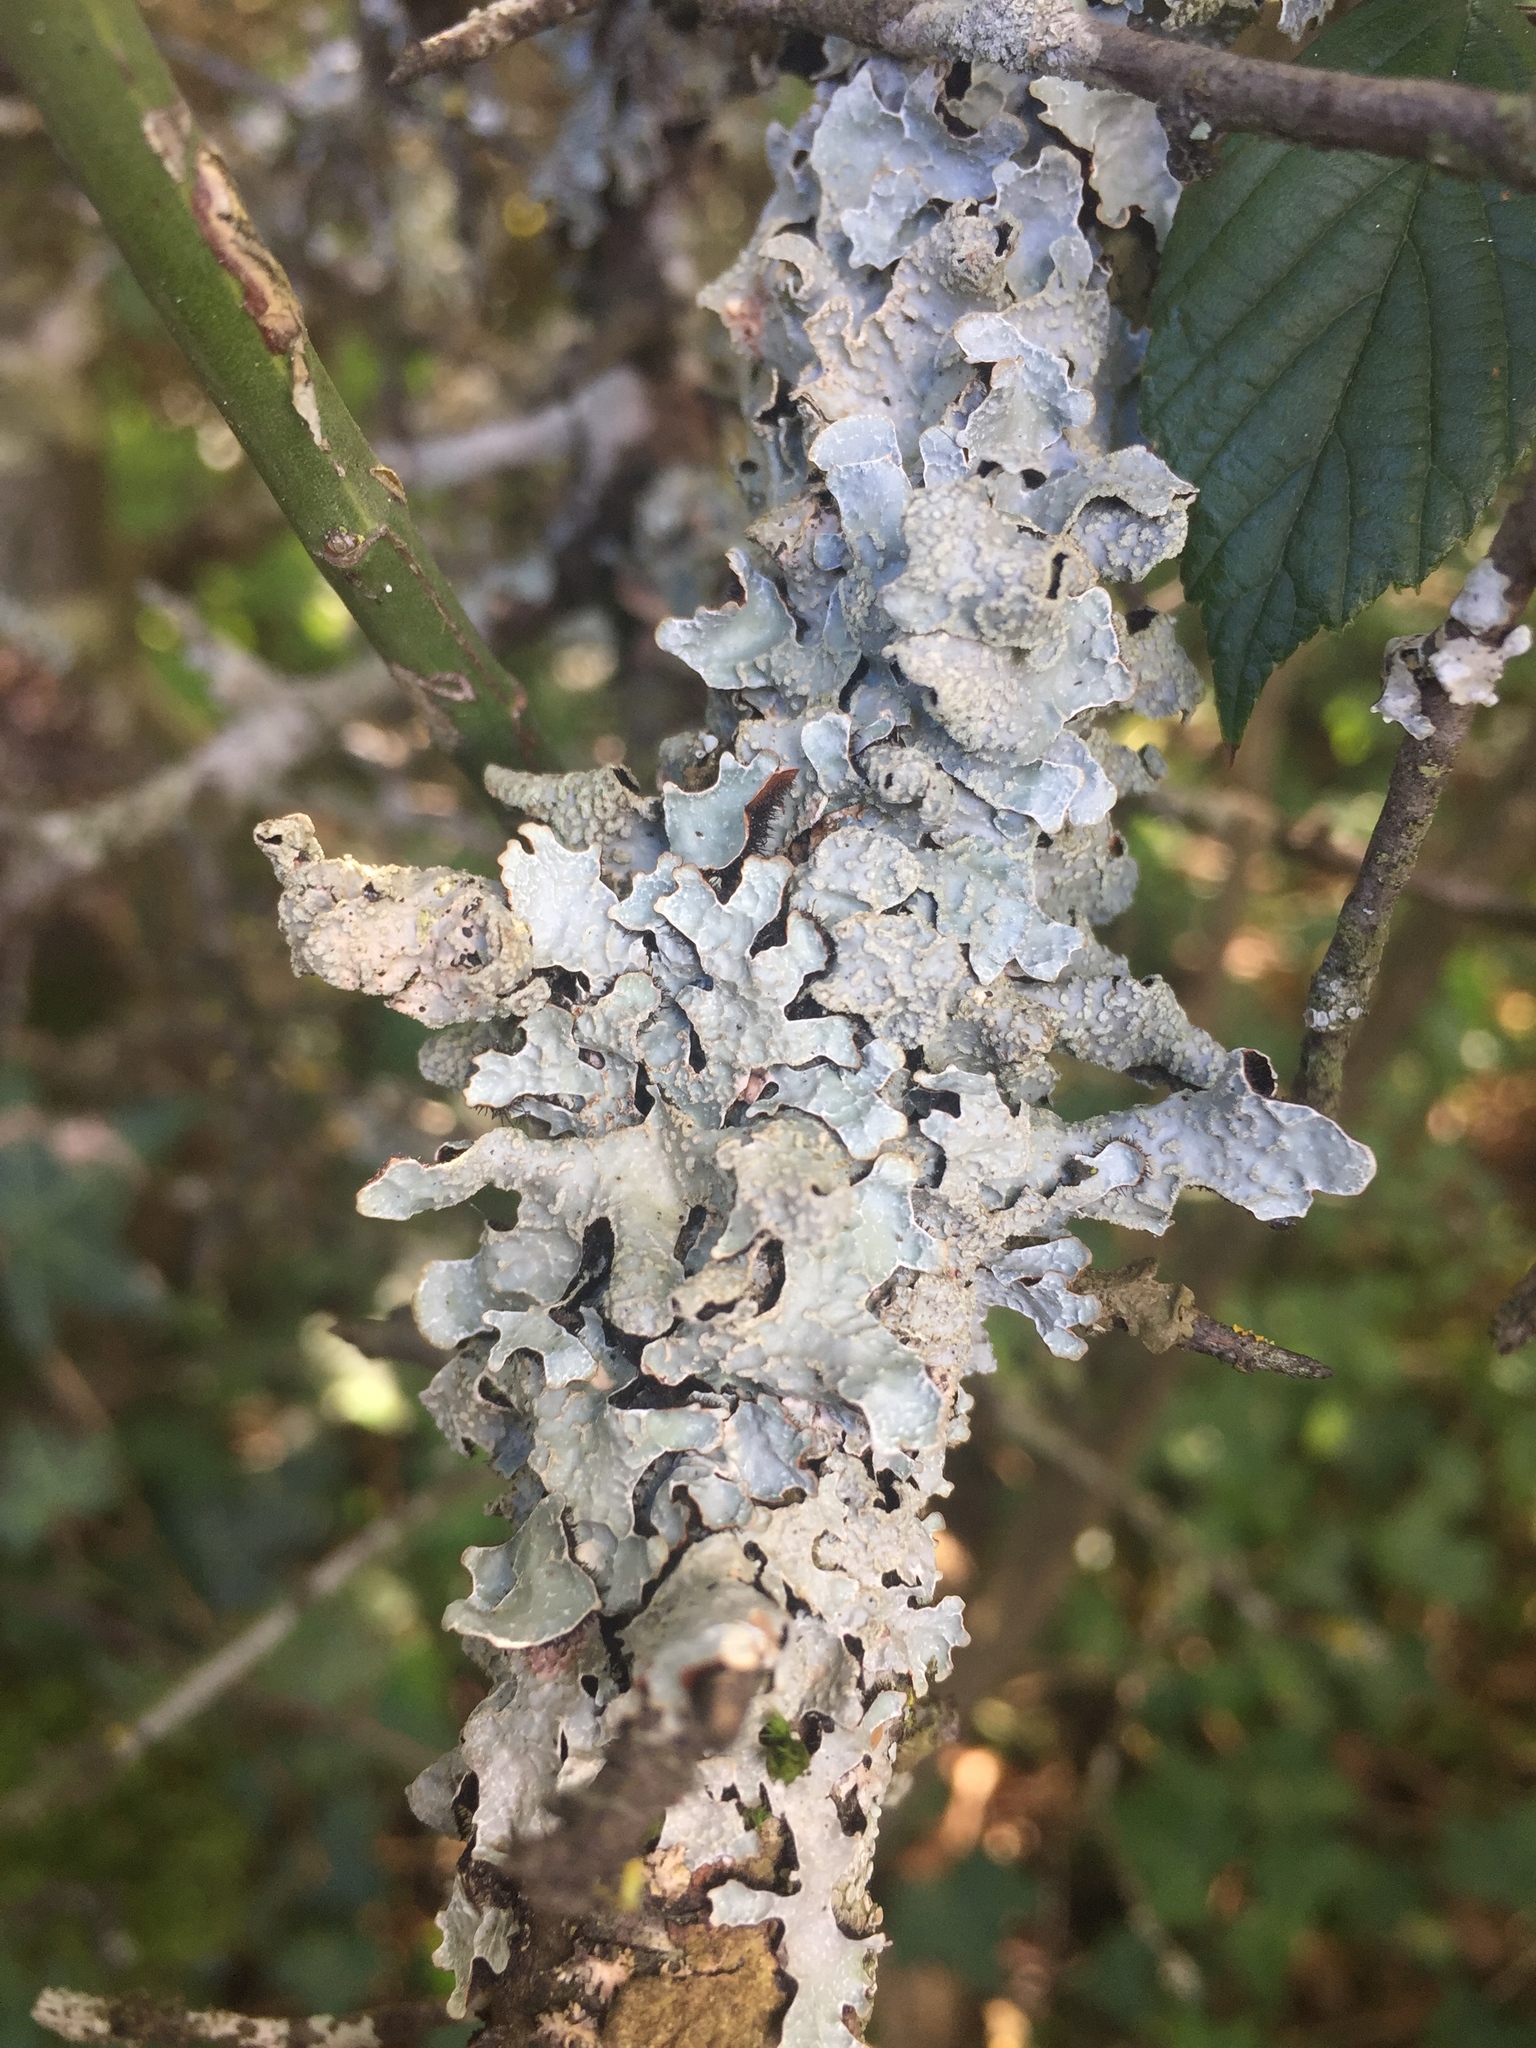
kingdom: Fungi
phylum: Ascomycota
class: Lecanoromycetes
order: Lecanorales
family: Parmeliaceae
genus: Parmelia
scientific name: Parmelia sulcata
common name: Netted shield lichen
